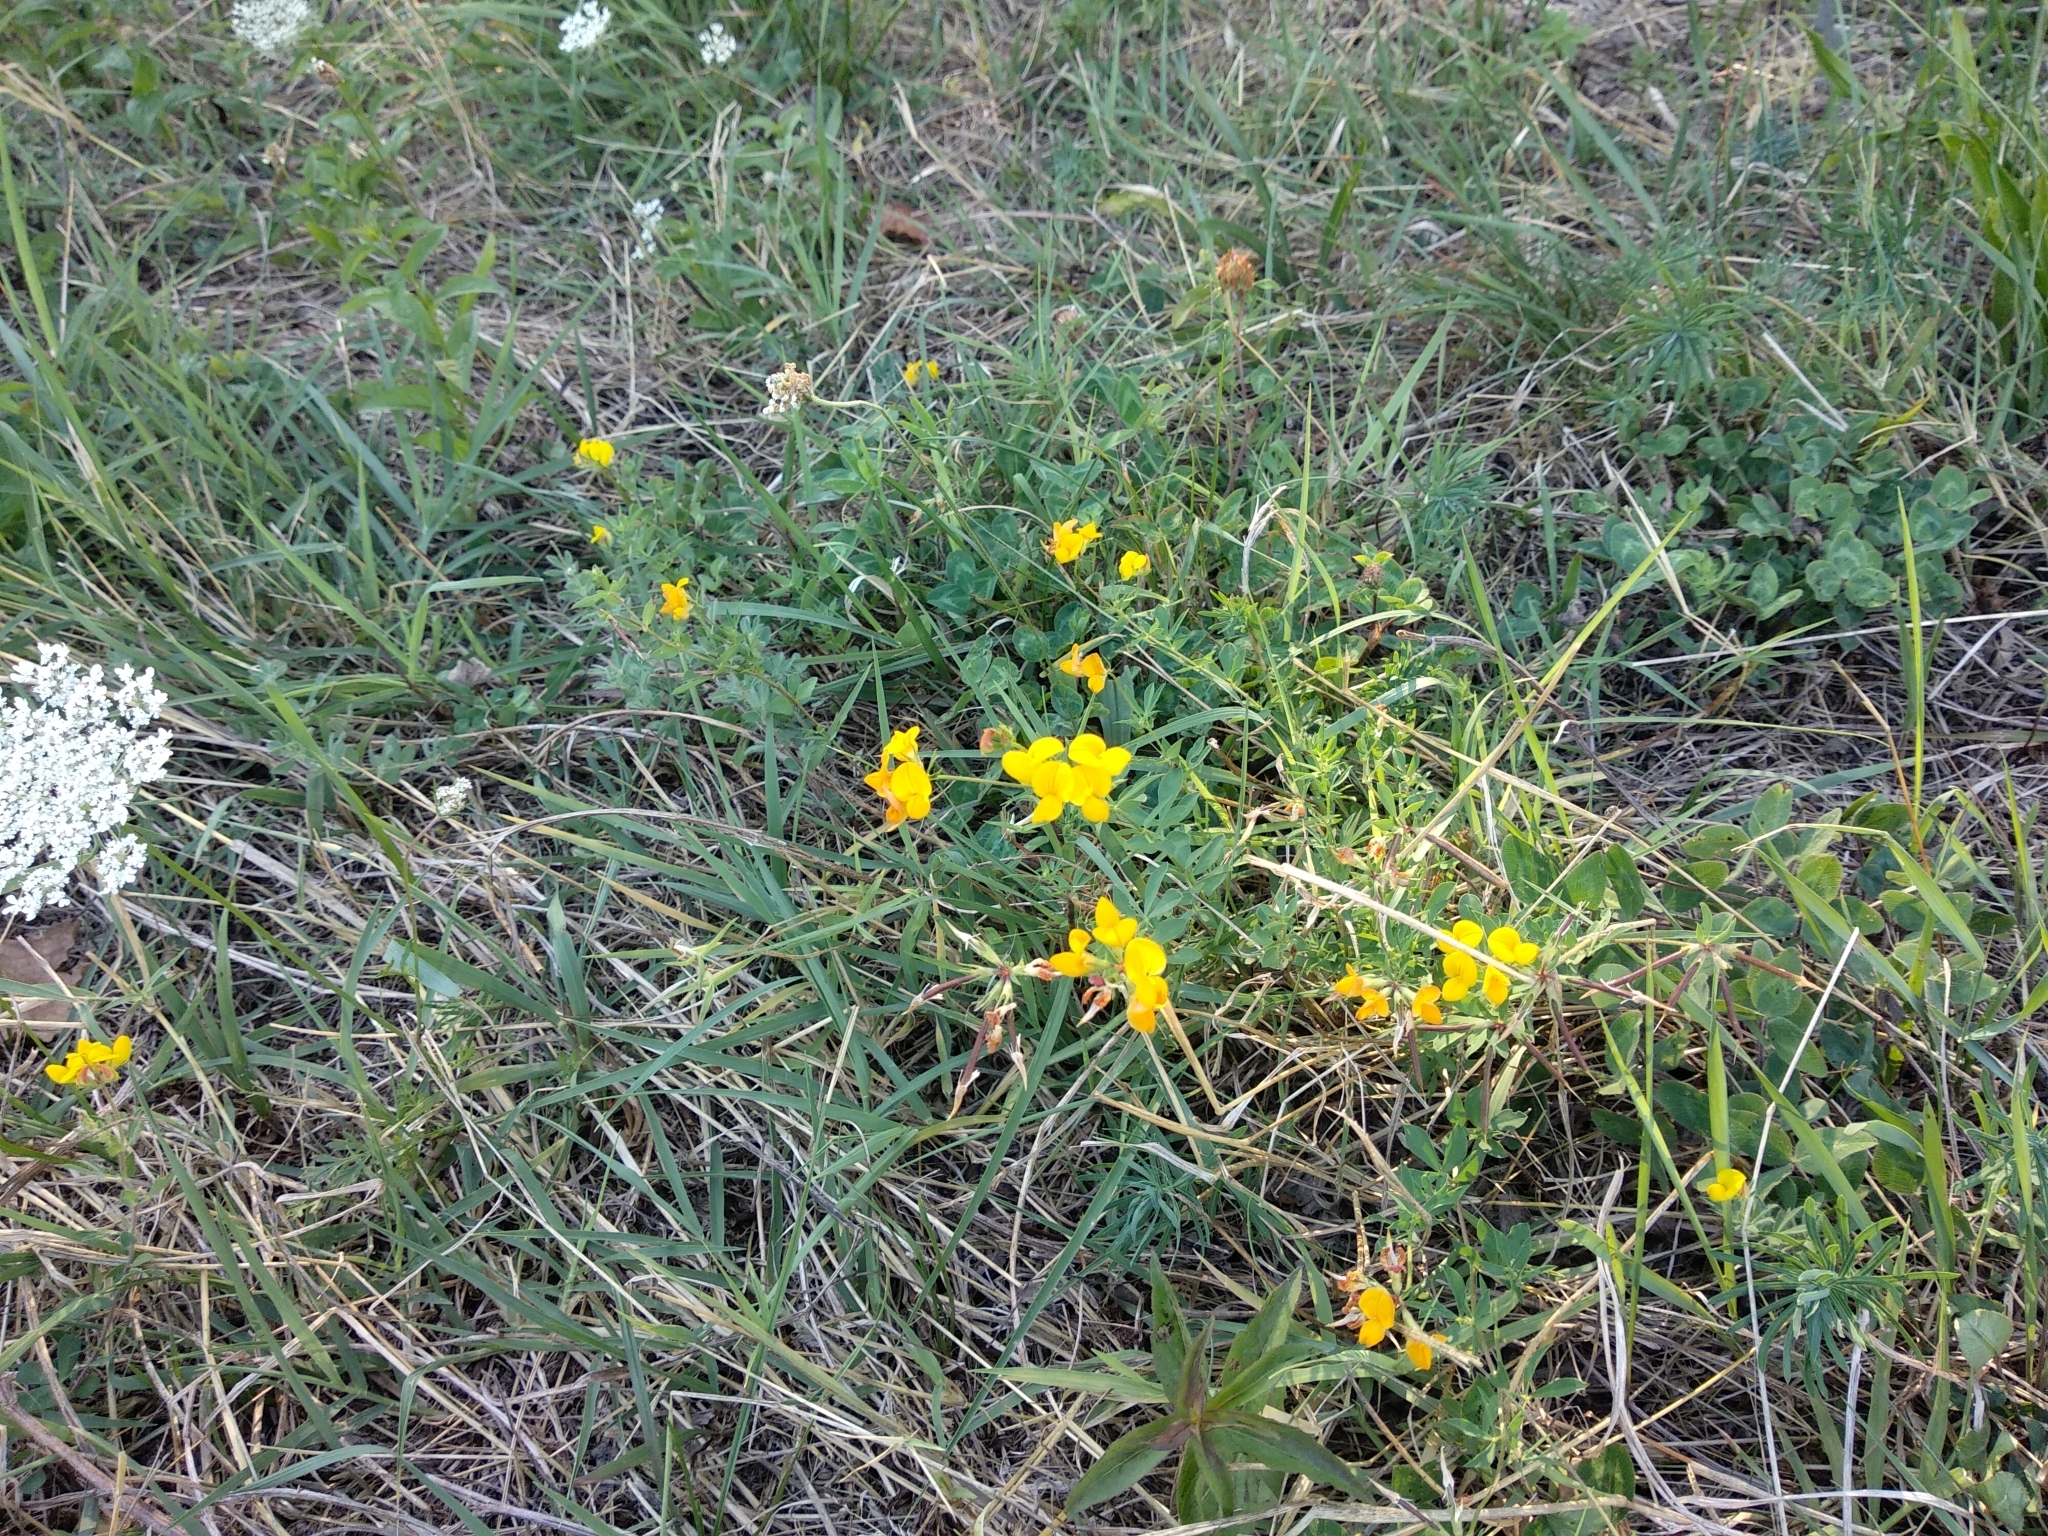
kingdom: Plantae
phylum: Tracheophyta
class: Magnoliopsida
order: Fabales
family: Fabaceae
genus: Lotus
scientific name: Lotus corniculatus
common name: Common bird's-foot-trefoil
